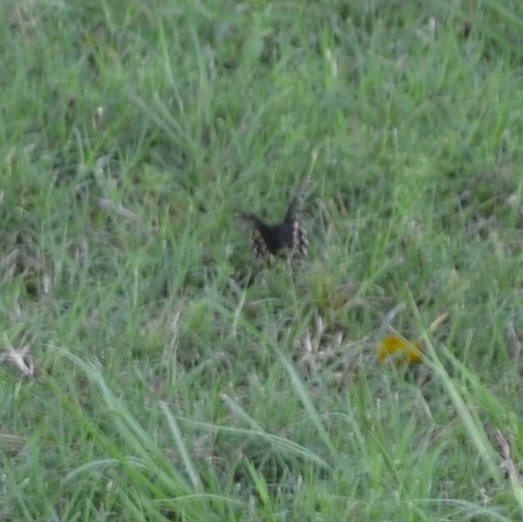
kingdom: Animalia
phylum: Arthropoda
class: Insecta
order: Lepidoptera
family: Papilionidae
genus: Papilio
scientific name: Papilio polyxenes
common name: Black swallowtail
